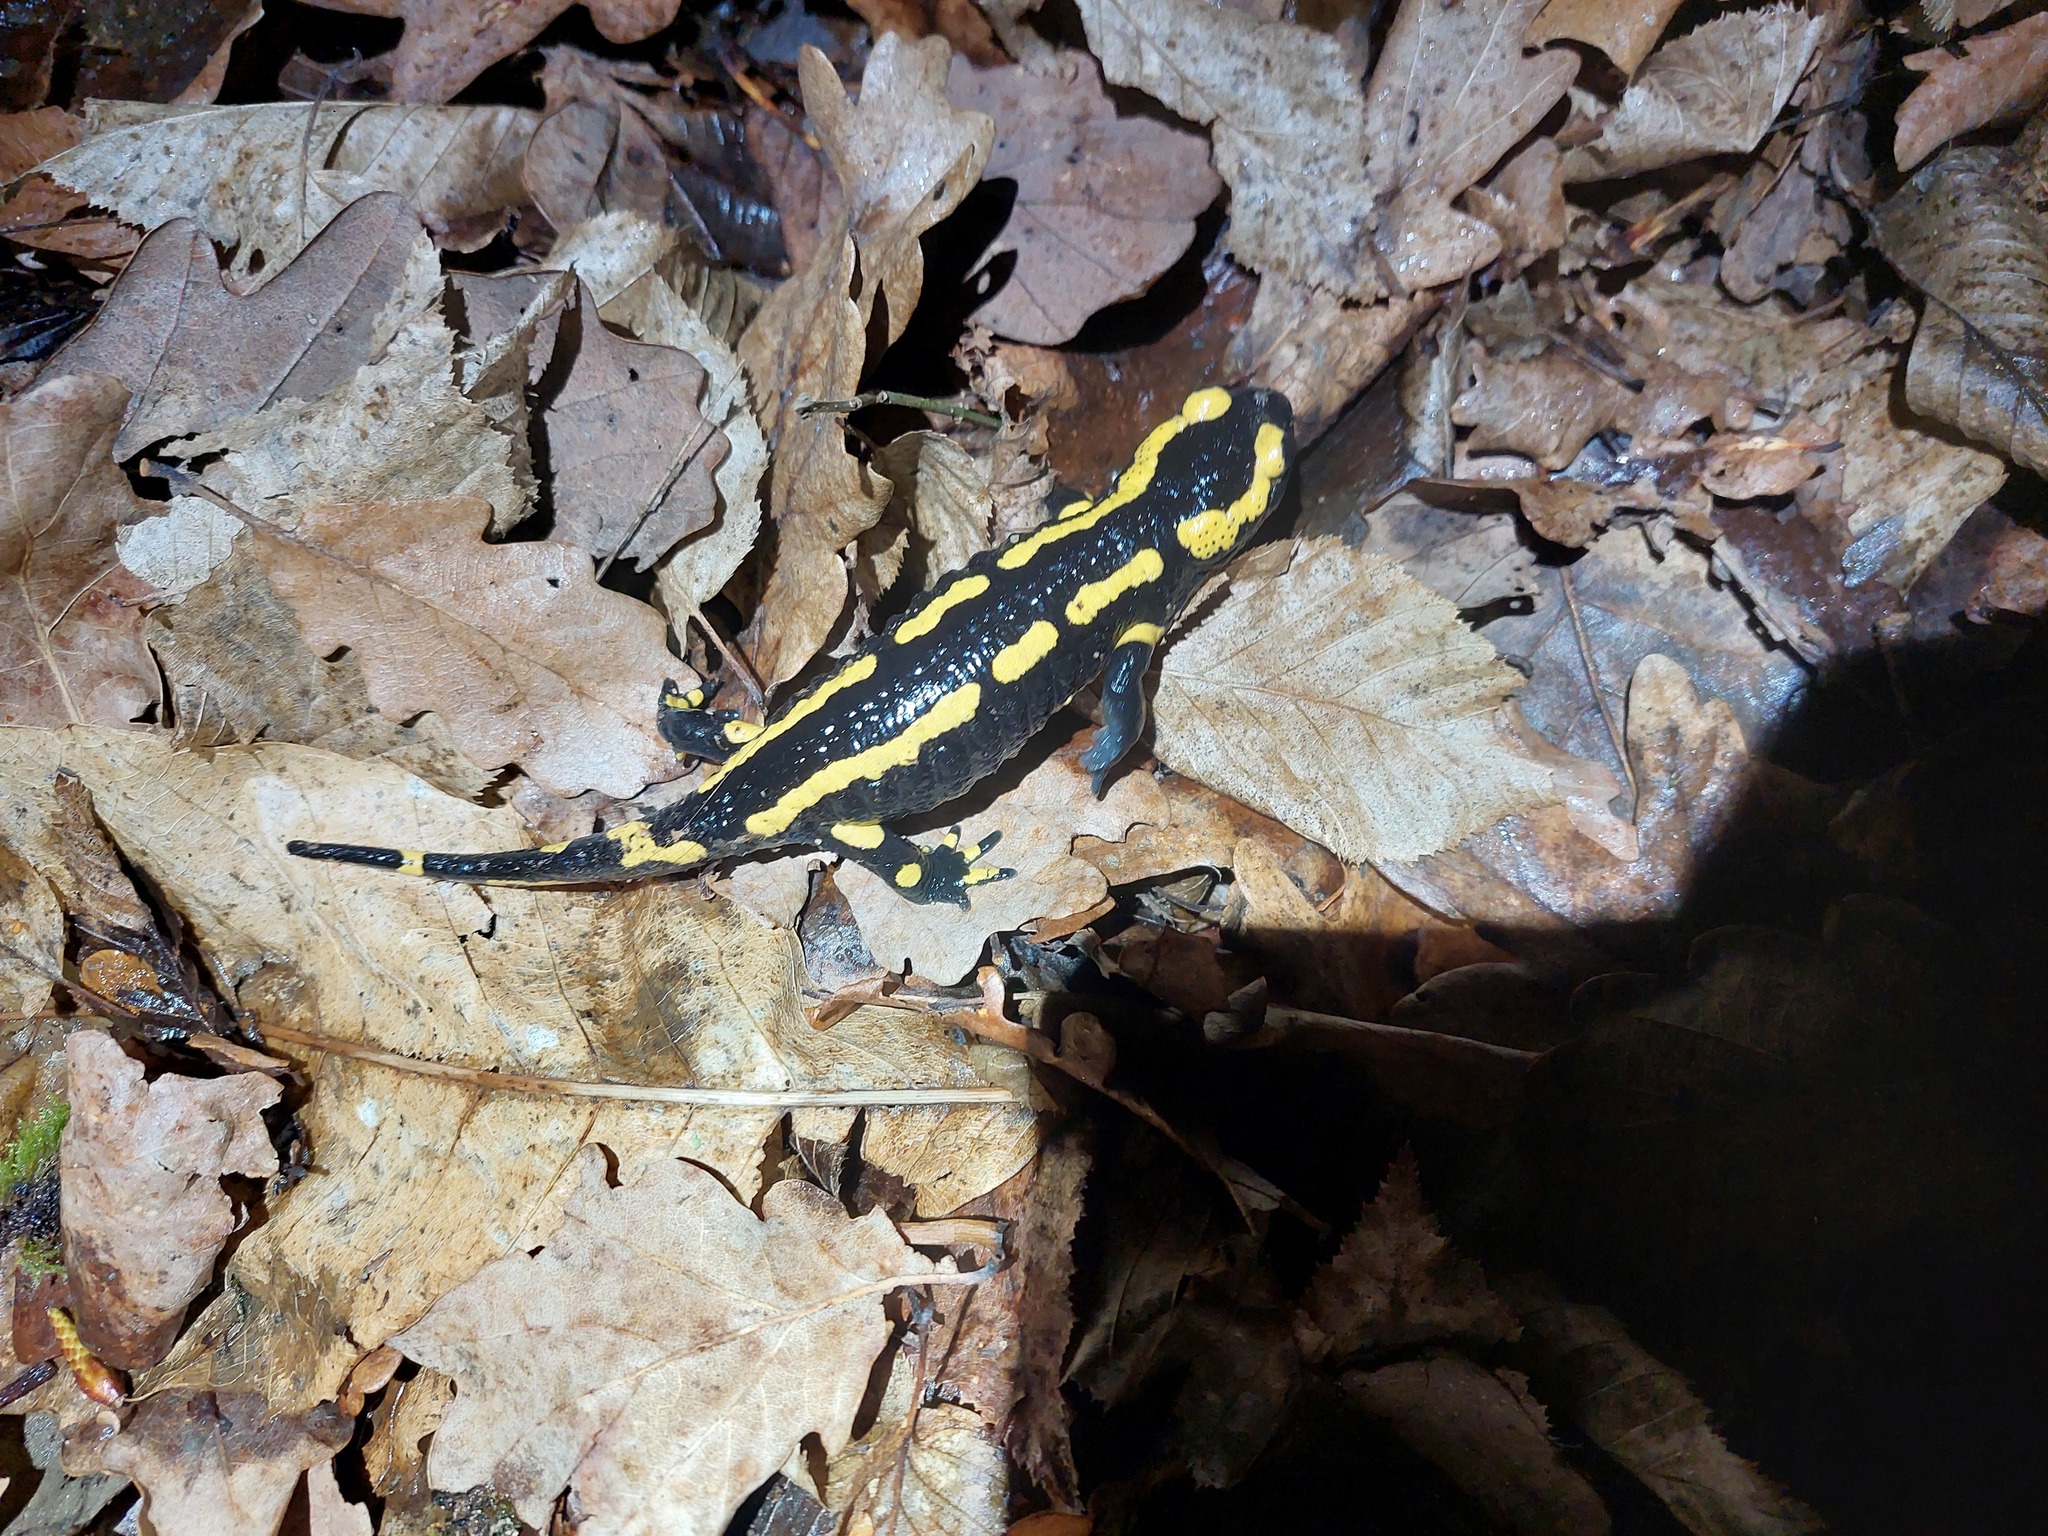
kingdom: Animalia
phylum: Chordata
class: Amphibia
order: Caudata
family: Salamandridae
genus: Salamandra
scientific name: Salamandra salamandra
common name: Fire salamander
